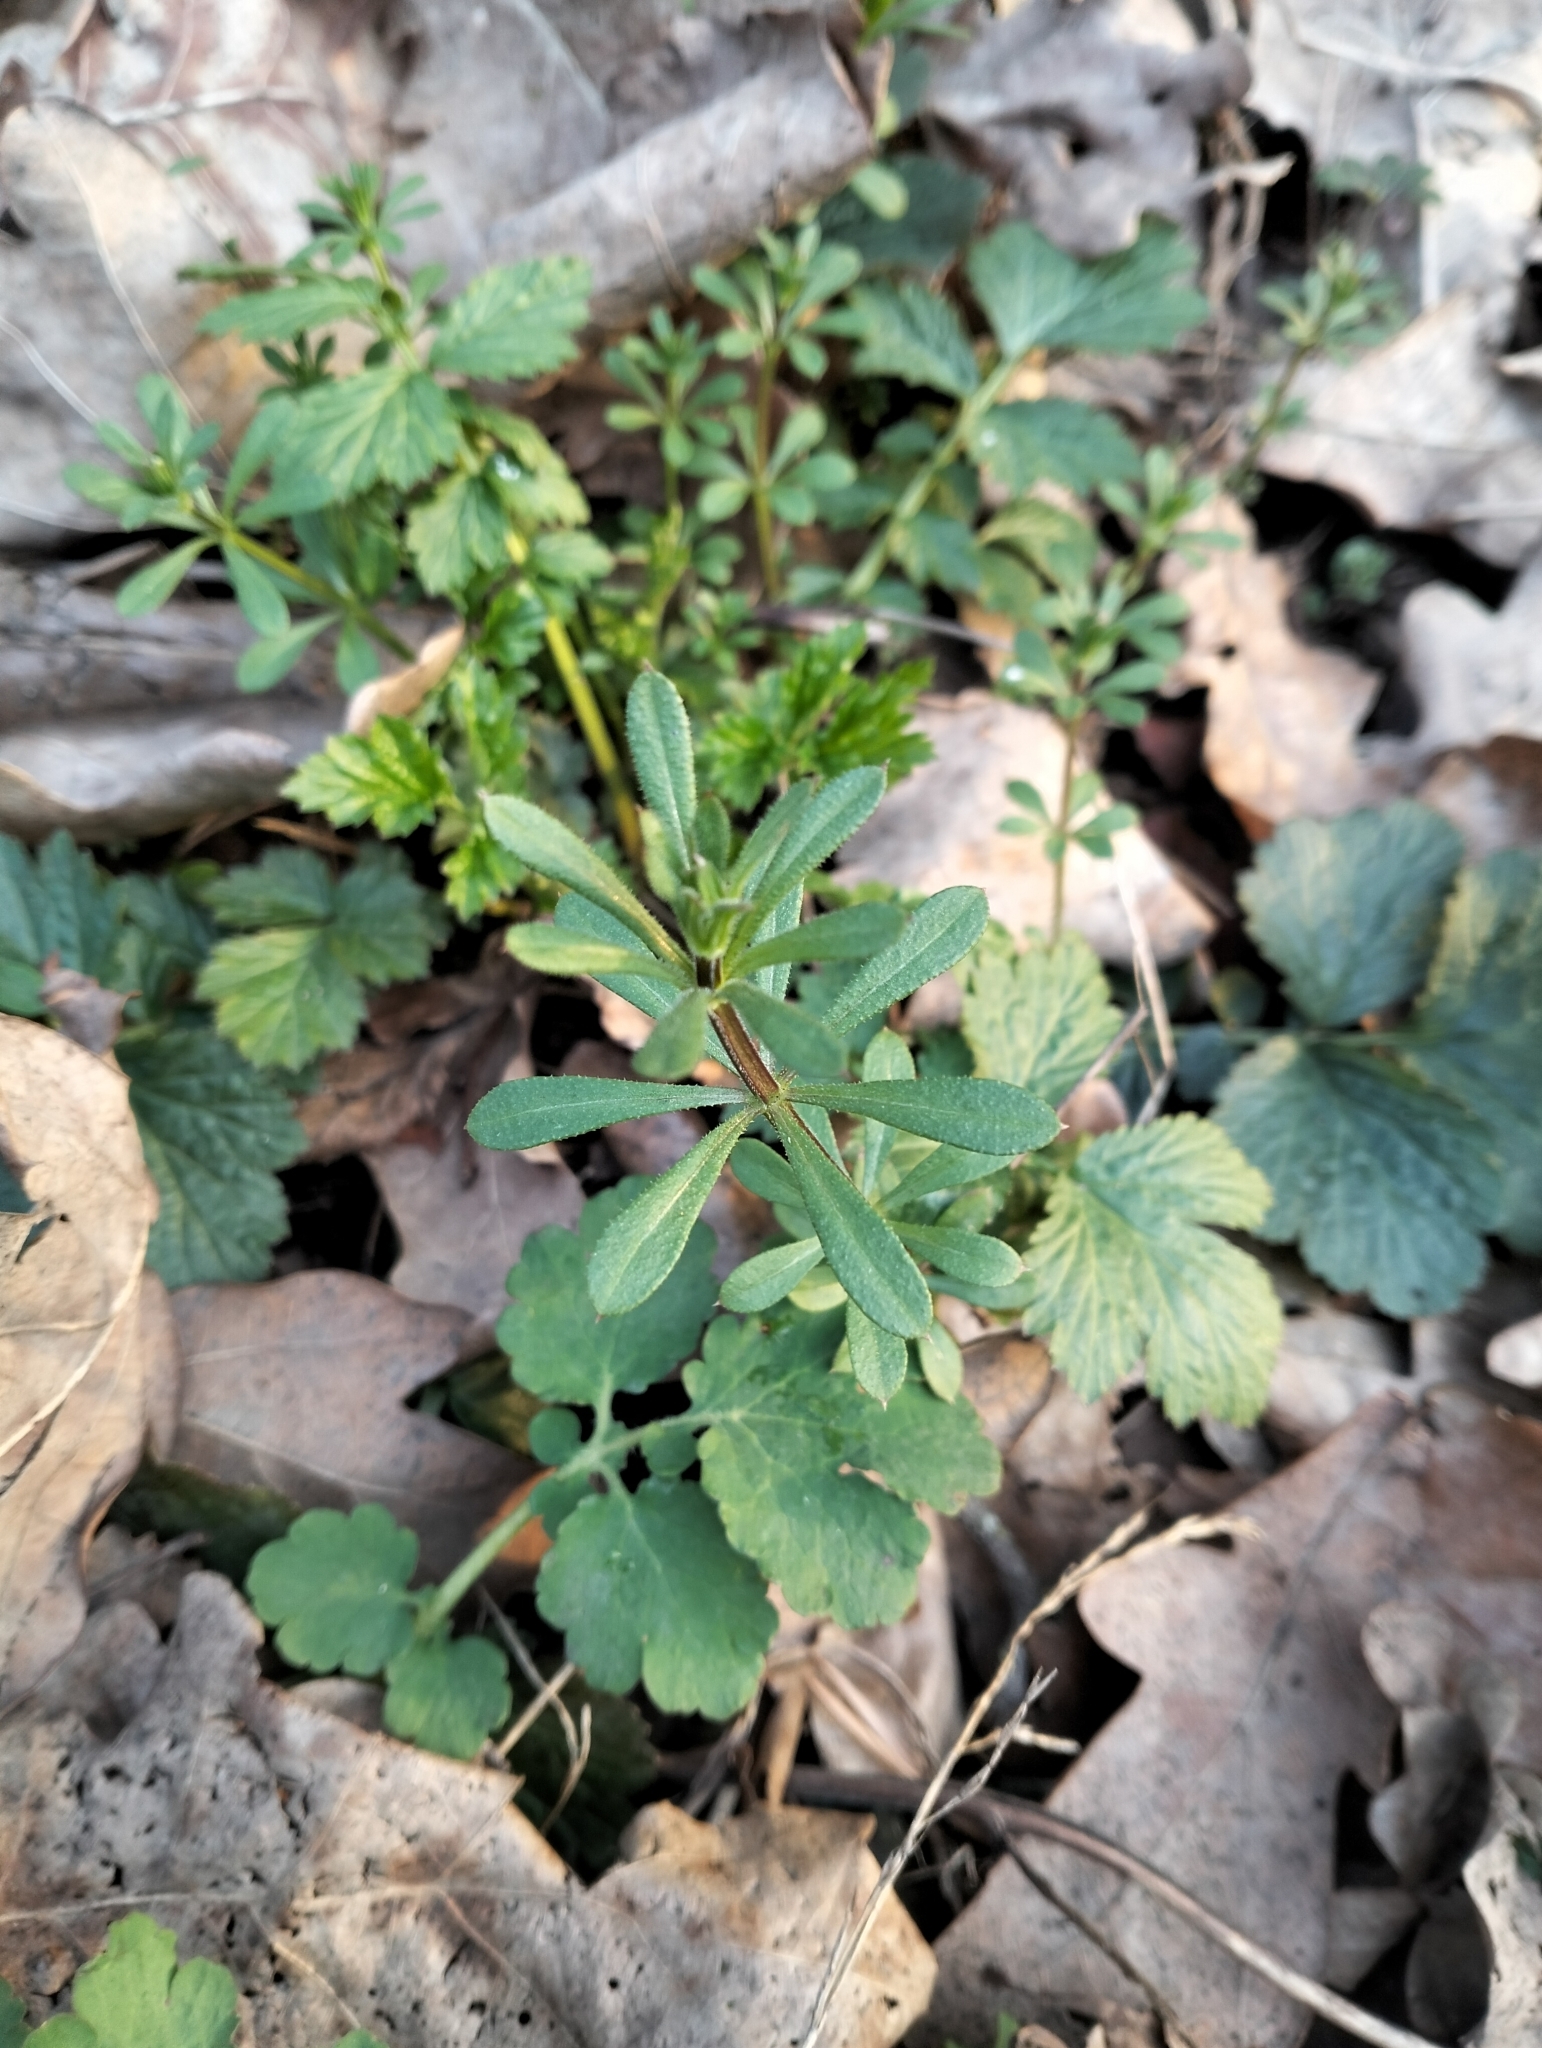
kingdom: Plantae
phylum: Tracheophyta
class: Magnoliopsida
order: Gentianales
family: Rubiaceae
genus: Galium
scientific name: Galium aparine
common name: Cleavers
